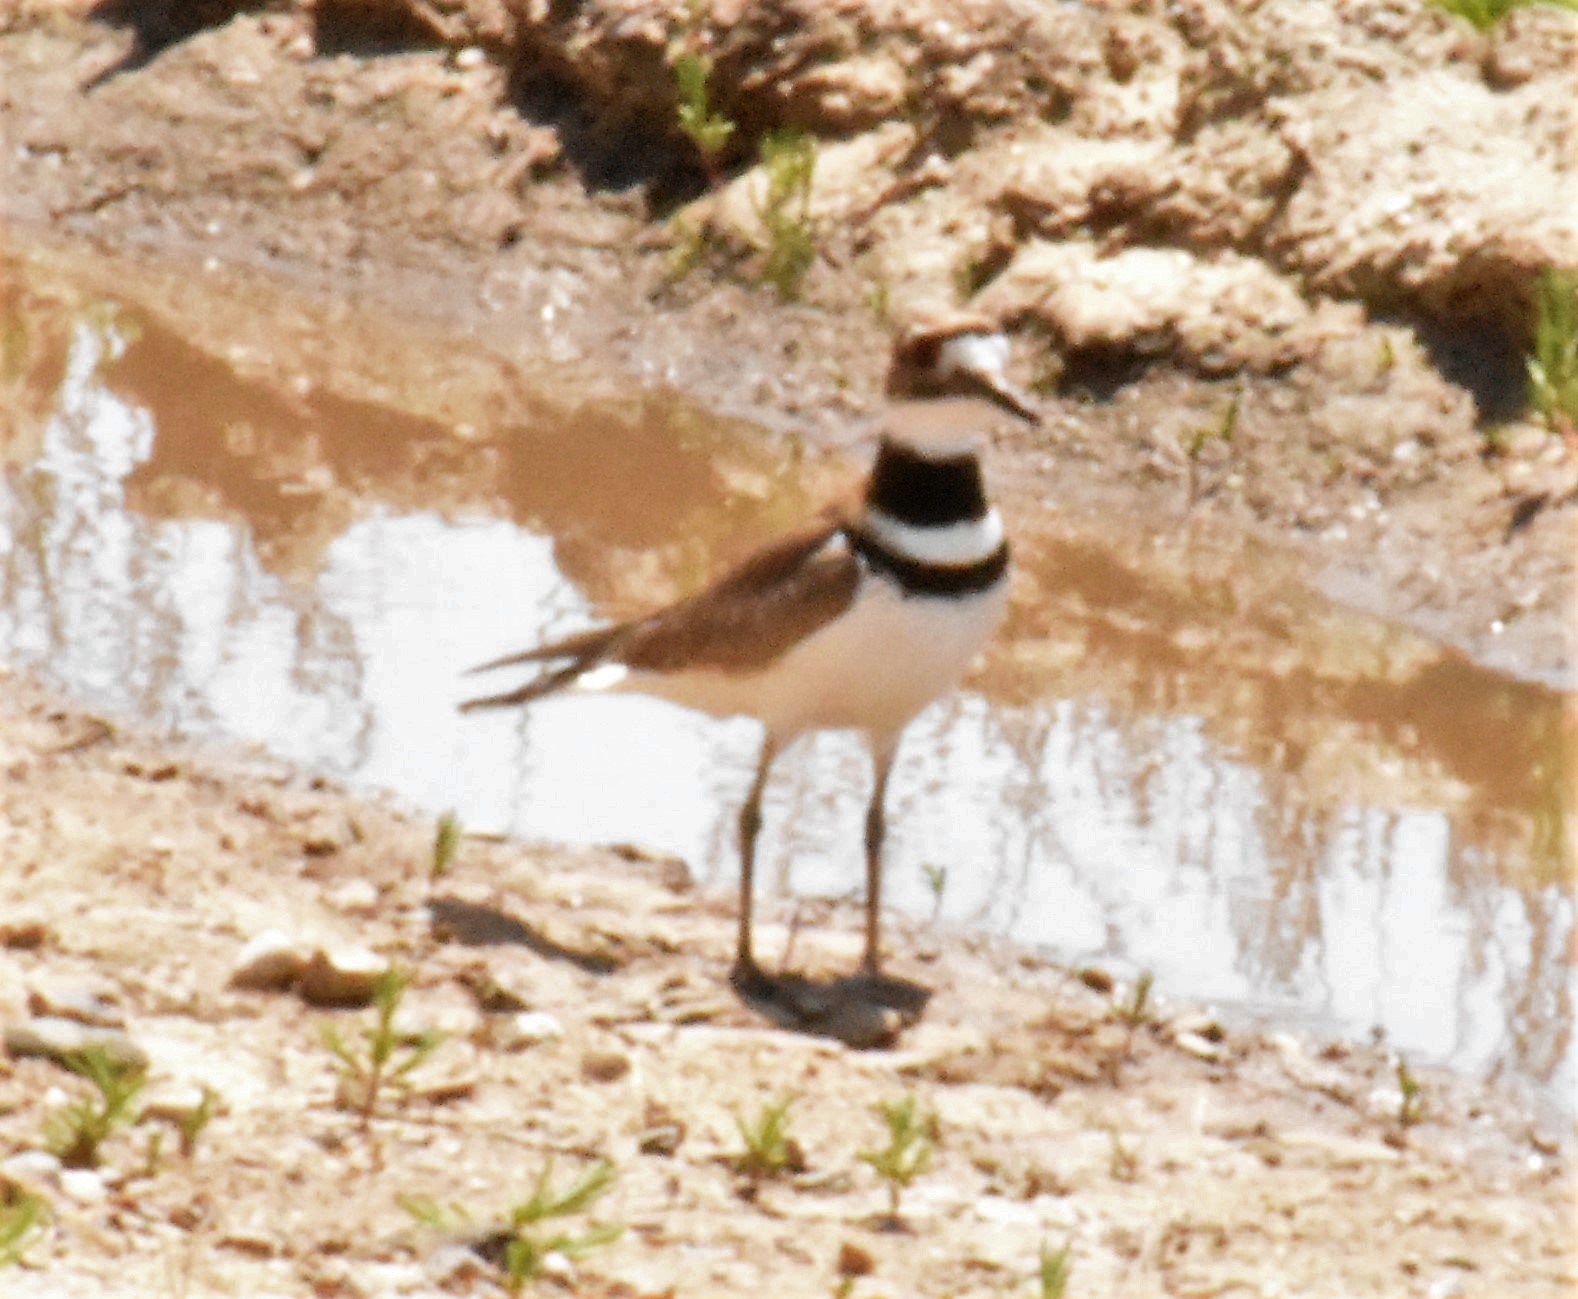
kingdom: Animalia
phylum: Chordata
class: Aves
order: Charadriiformes
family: Charadriidae
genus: Charadrius
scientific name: Charadrius vociferus
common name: Killdeer
